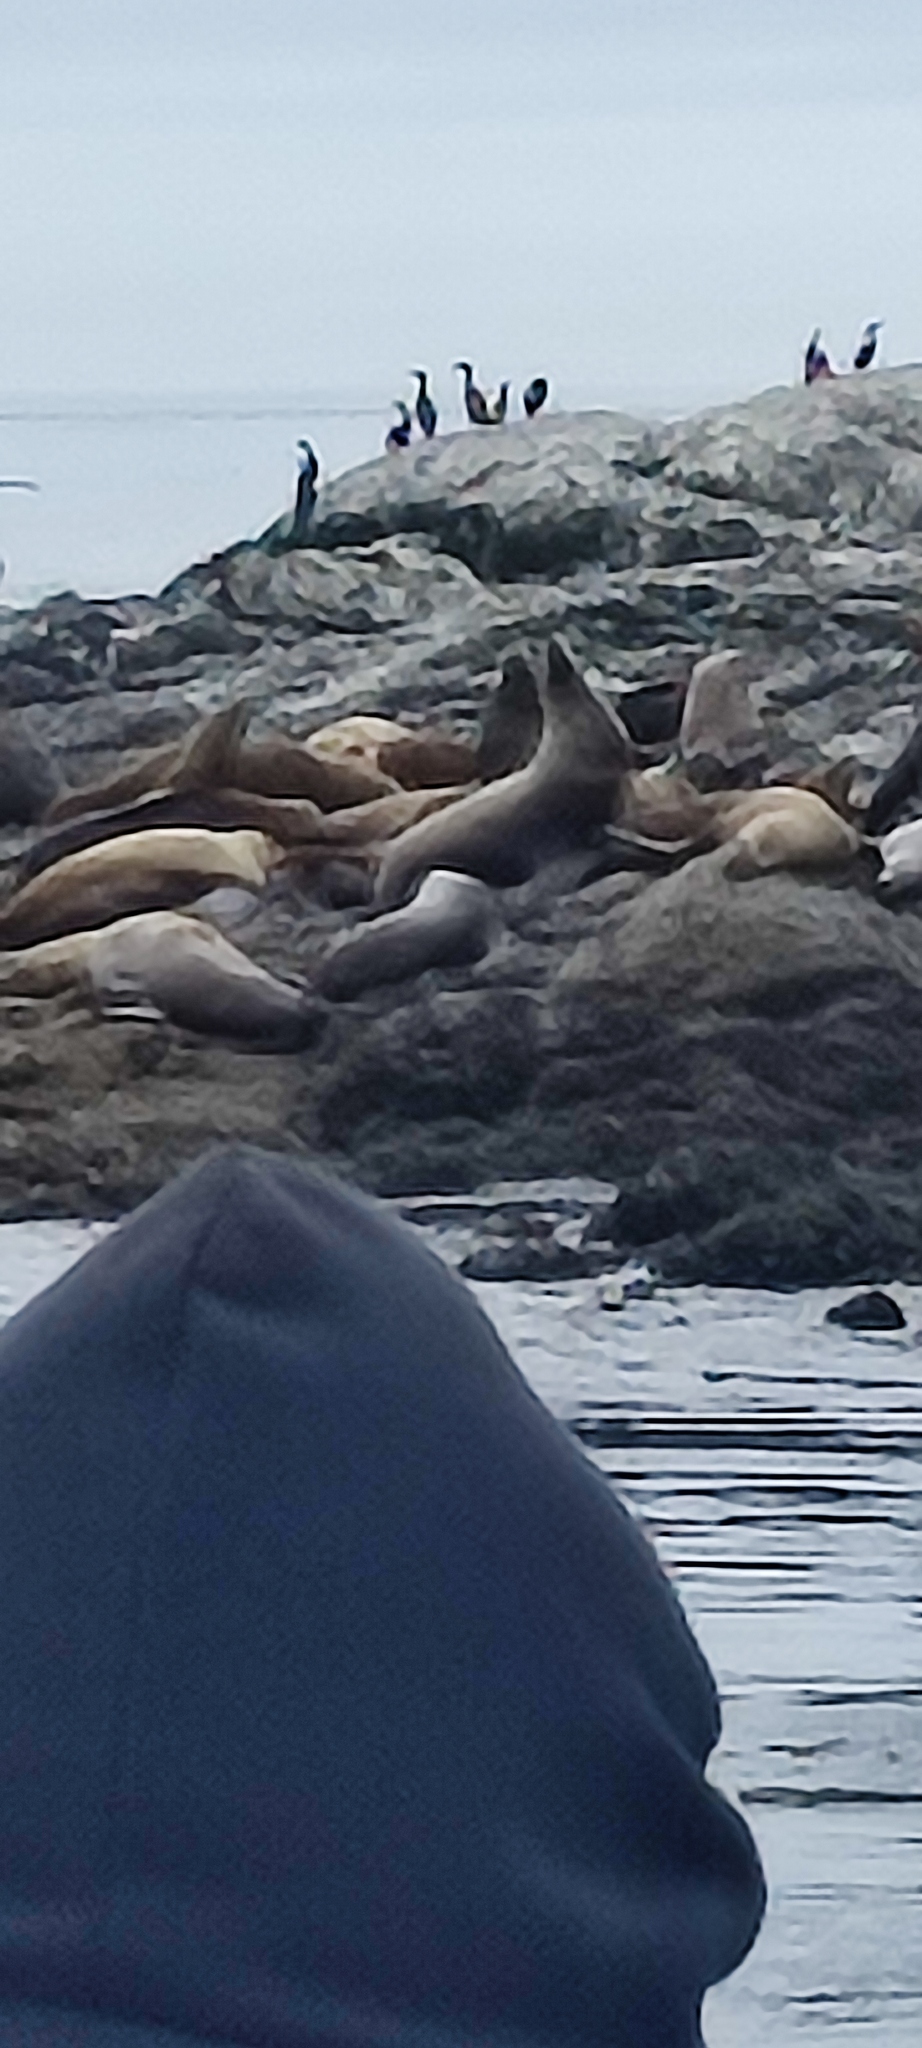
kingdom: Animalia
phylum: Chordata
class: Mammalia
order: Carnivora
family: Otariidae
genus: Eumetopias
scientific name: Eumetopias jubatus
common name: Steller sea lion
